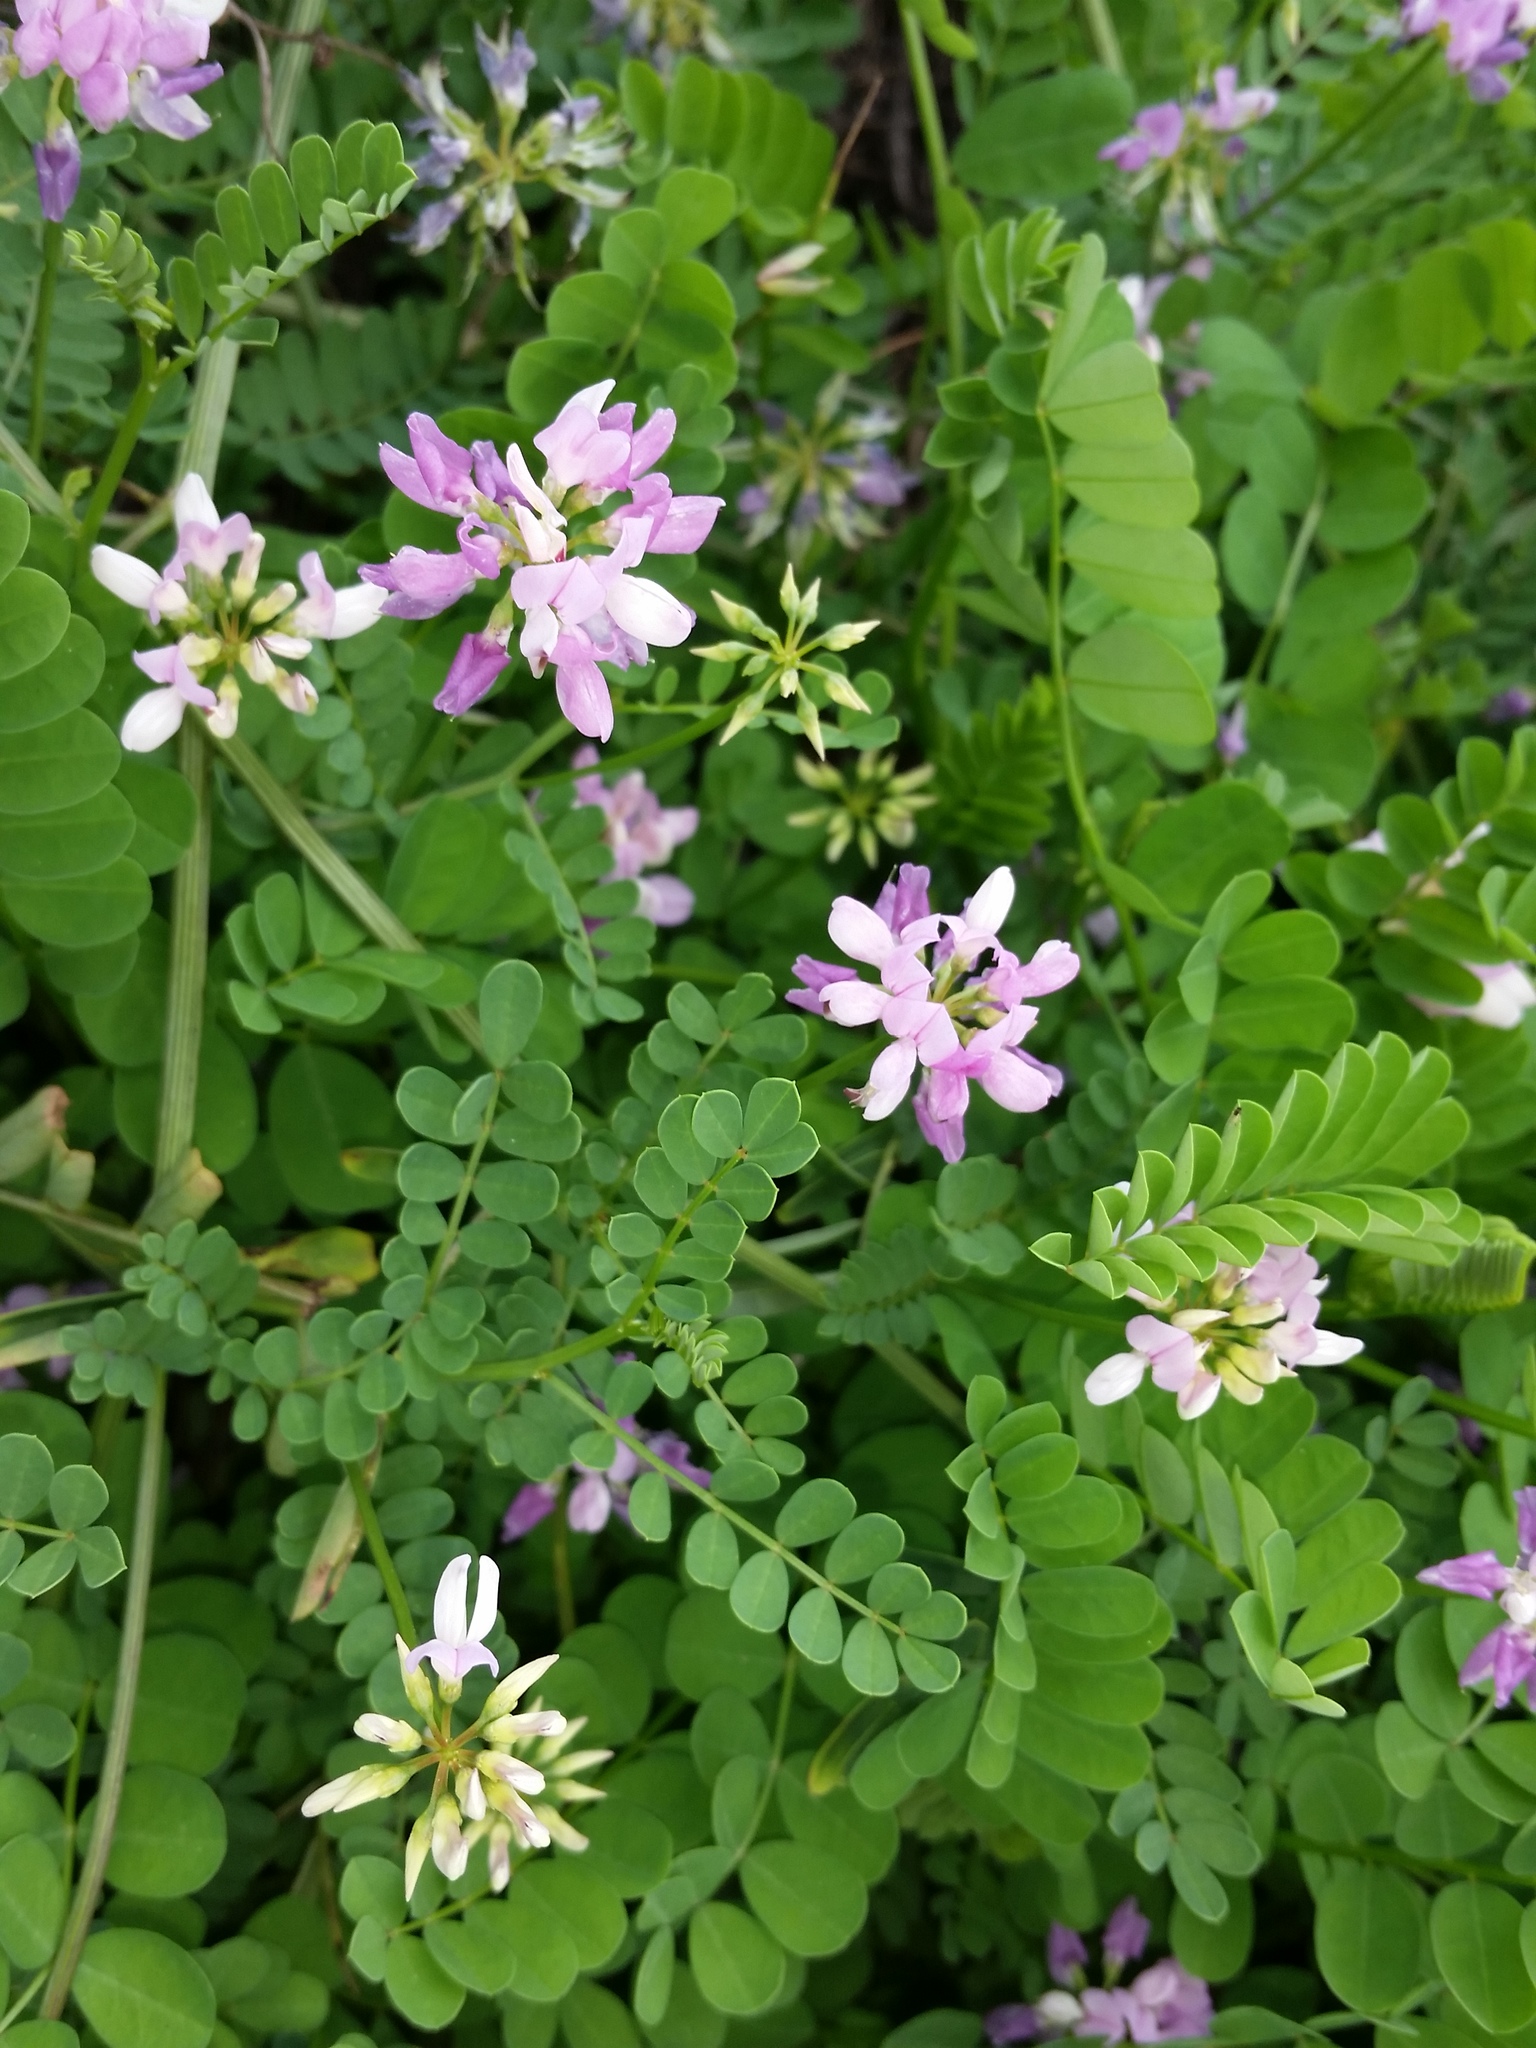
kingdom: Plantae
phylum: Tracheophyta
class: Magnoliopsida
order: Fabales
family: Fabaceae
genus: Coronilla
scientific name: Coronilla varia
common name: Crownvetch
